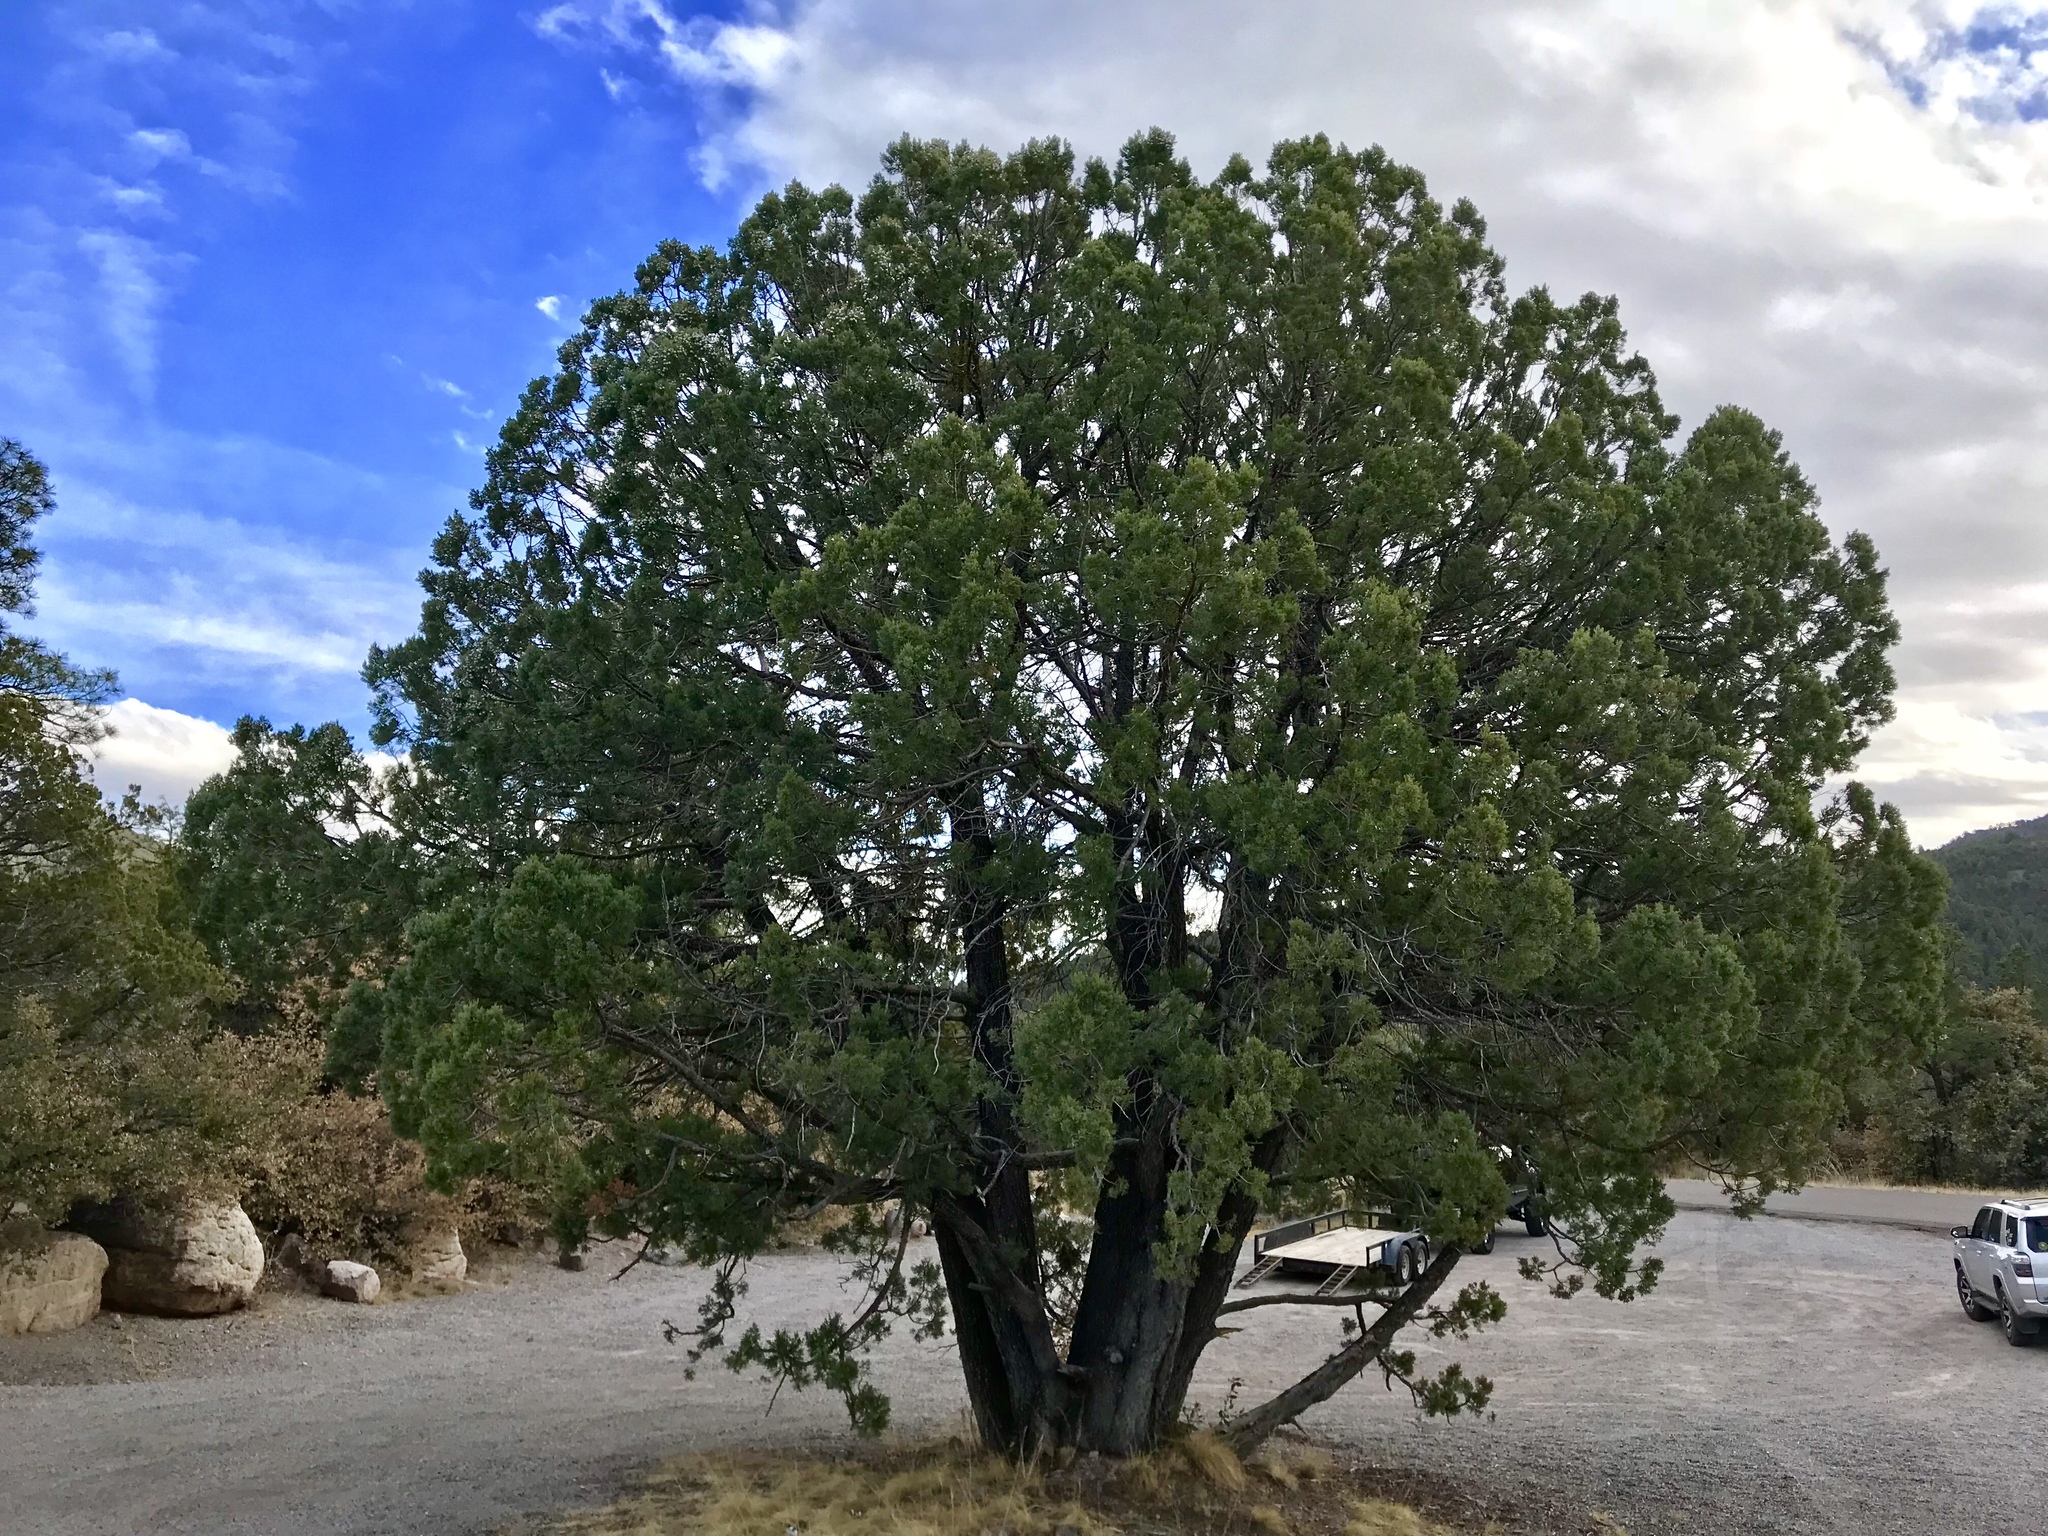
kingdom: Plantae
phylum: Tracheophyta
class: Pinopsida
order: Pinales
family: Cupressaceae
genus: Juniperus
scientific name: Juniperus deppeana
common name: Alligator juniper
